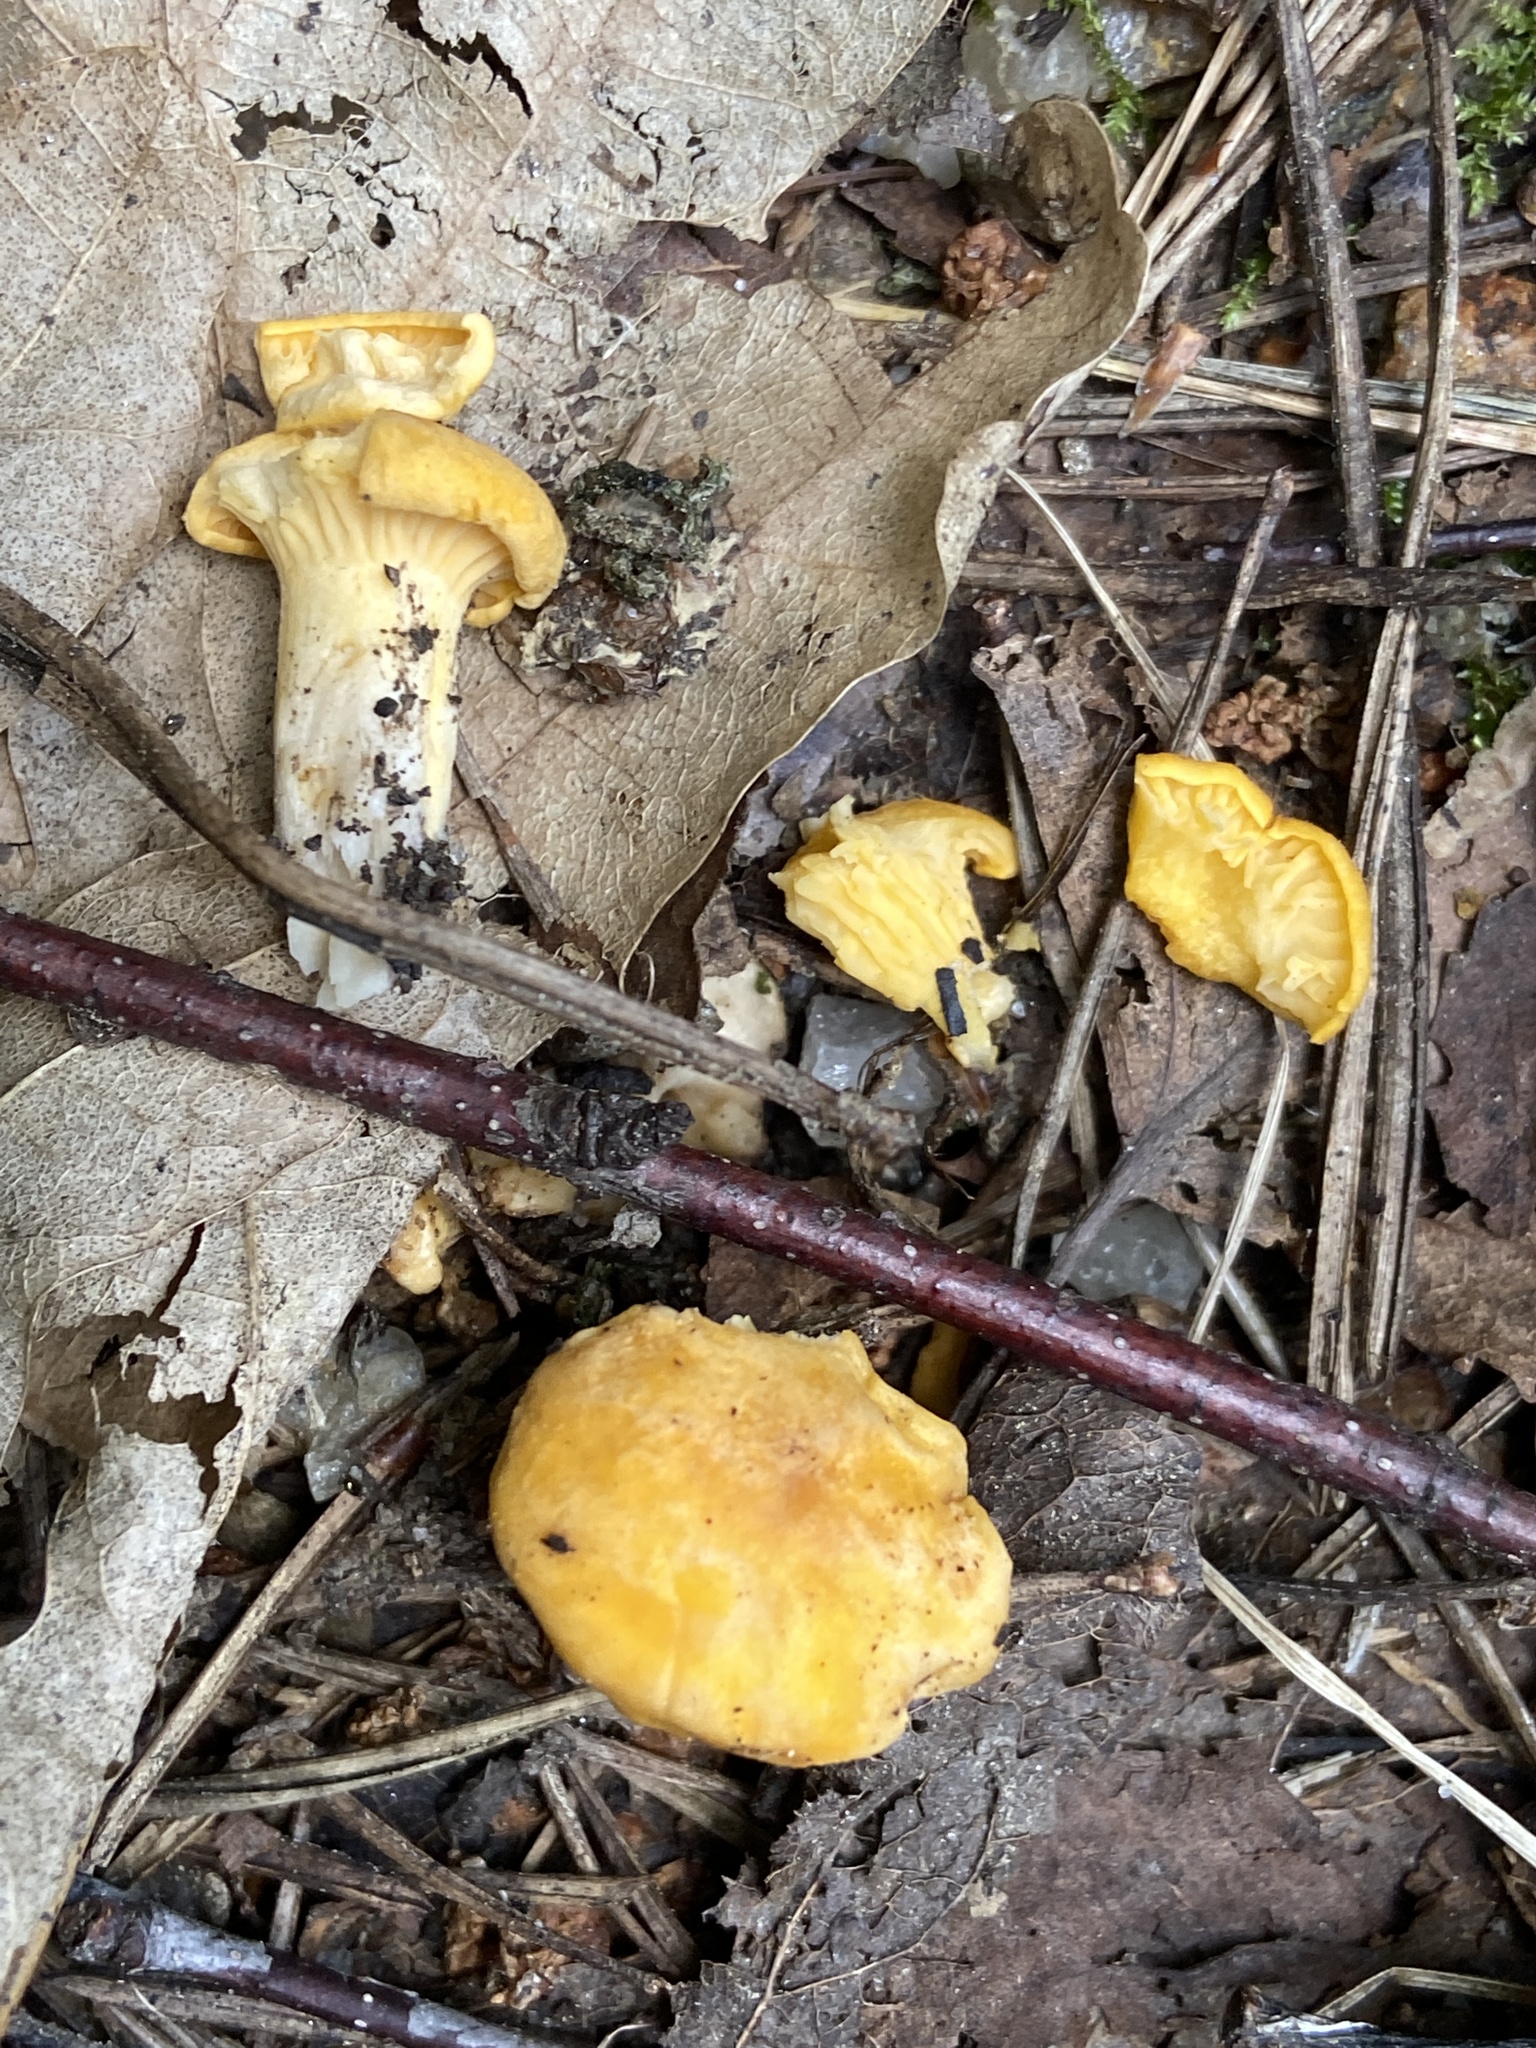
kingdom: Fungi
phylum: Basidiomycota
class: Agaricomycetes
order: Cantharellales
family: Hydnaceae
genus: Cantharellus
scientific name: Cantharellus cibarius
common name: Chanterelle
